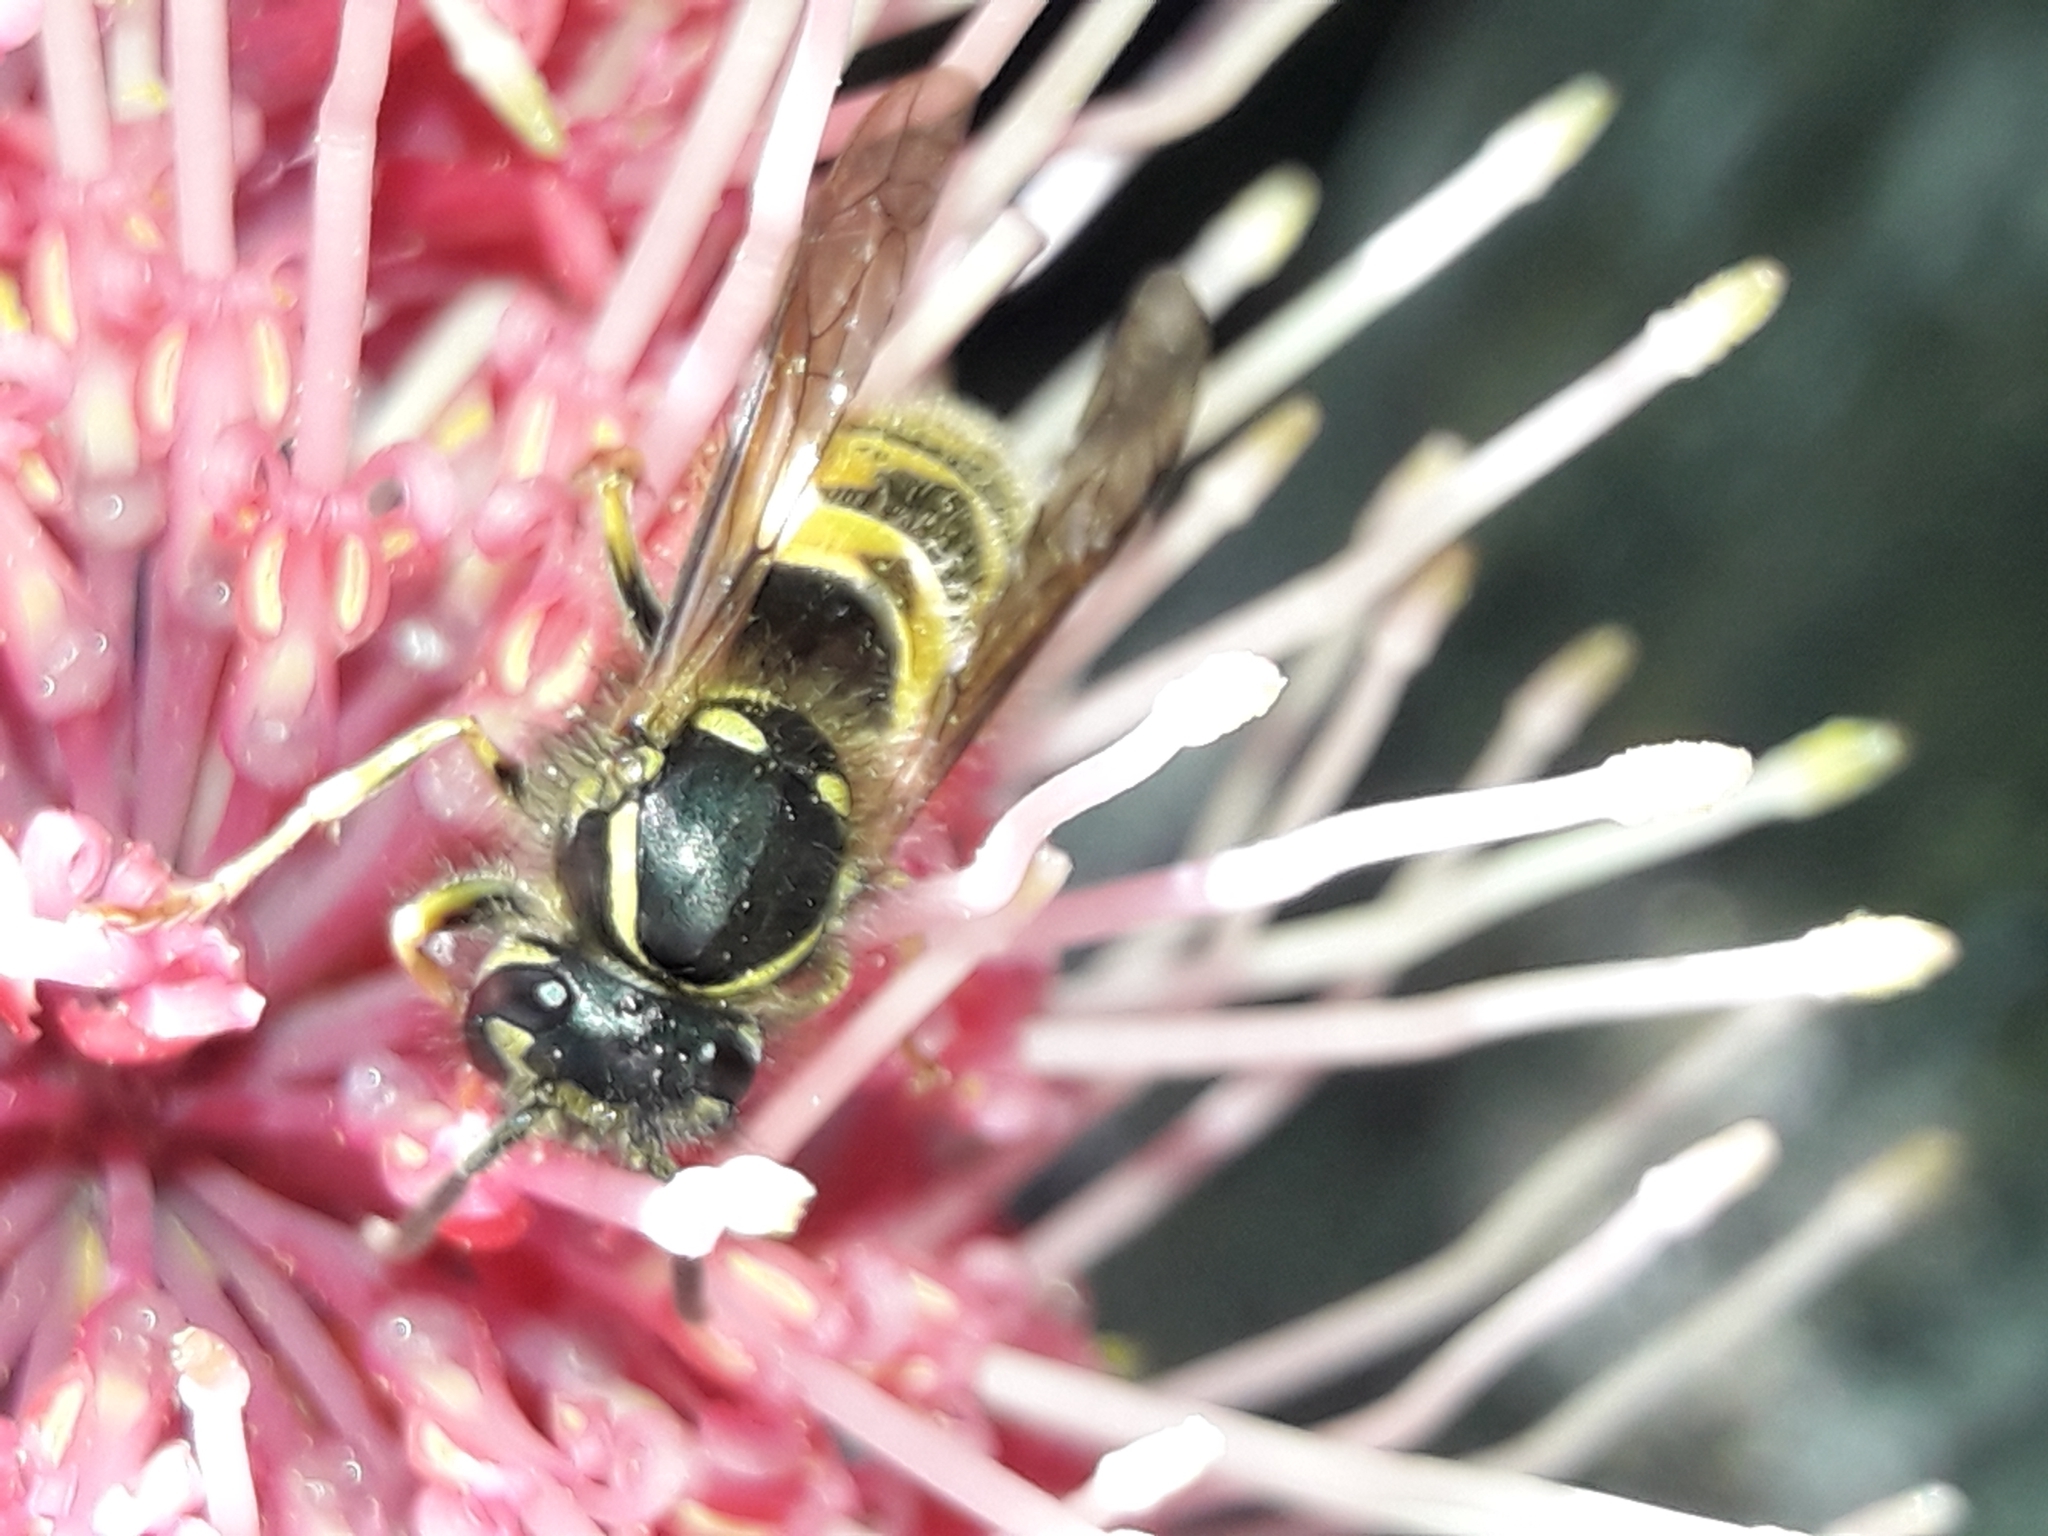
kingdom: Animalia
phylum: Arthropoda
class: Insecta
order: Hymenoptera
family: Vespidae
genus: Vespula
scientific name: Vespula vulgaris
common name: Common wasp
